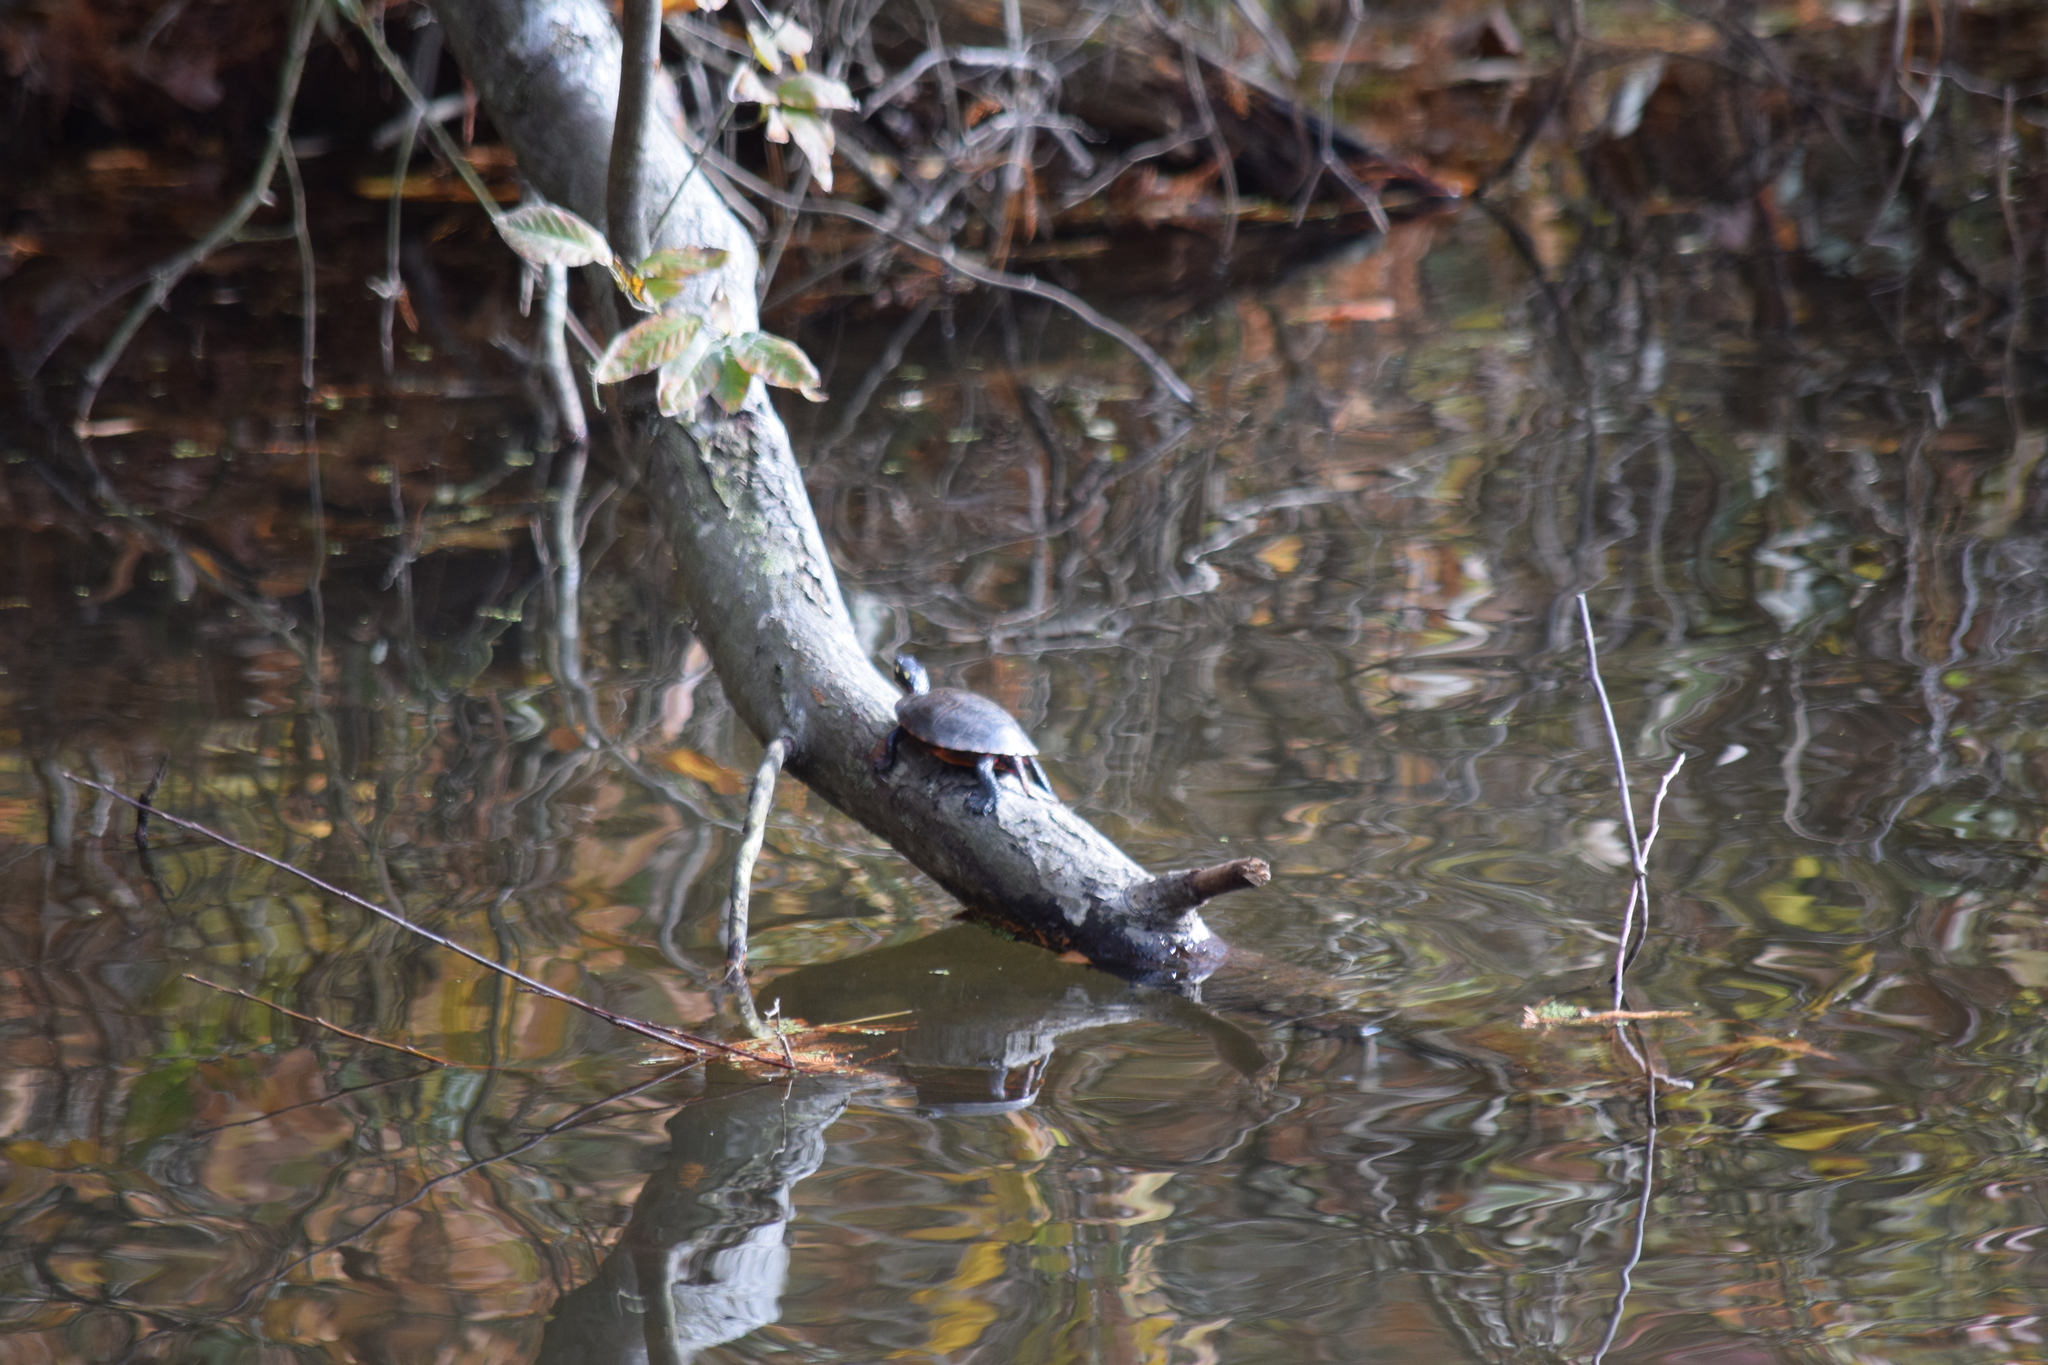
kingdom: Animalia
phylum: Chordata
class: Testudines
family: Emydidae
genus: Chrysemys
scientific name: Chrysemys picta
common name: Painted turtle
